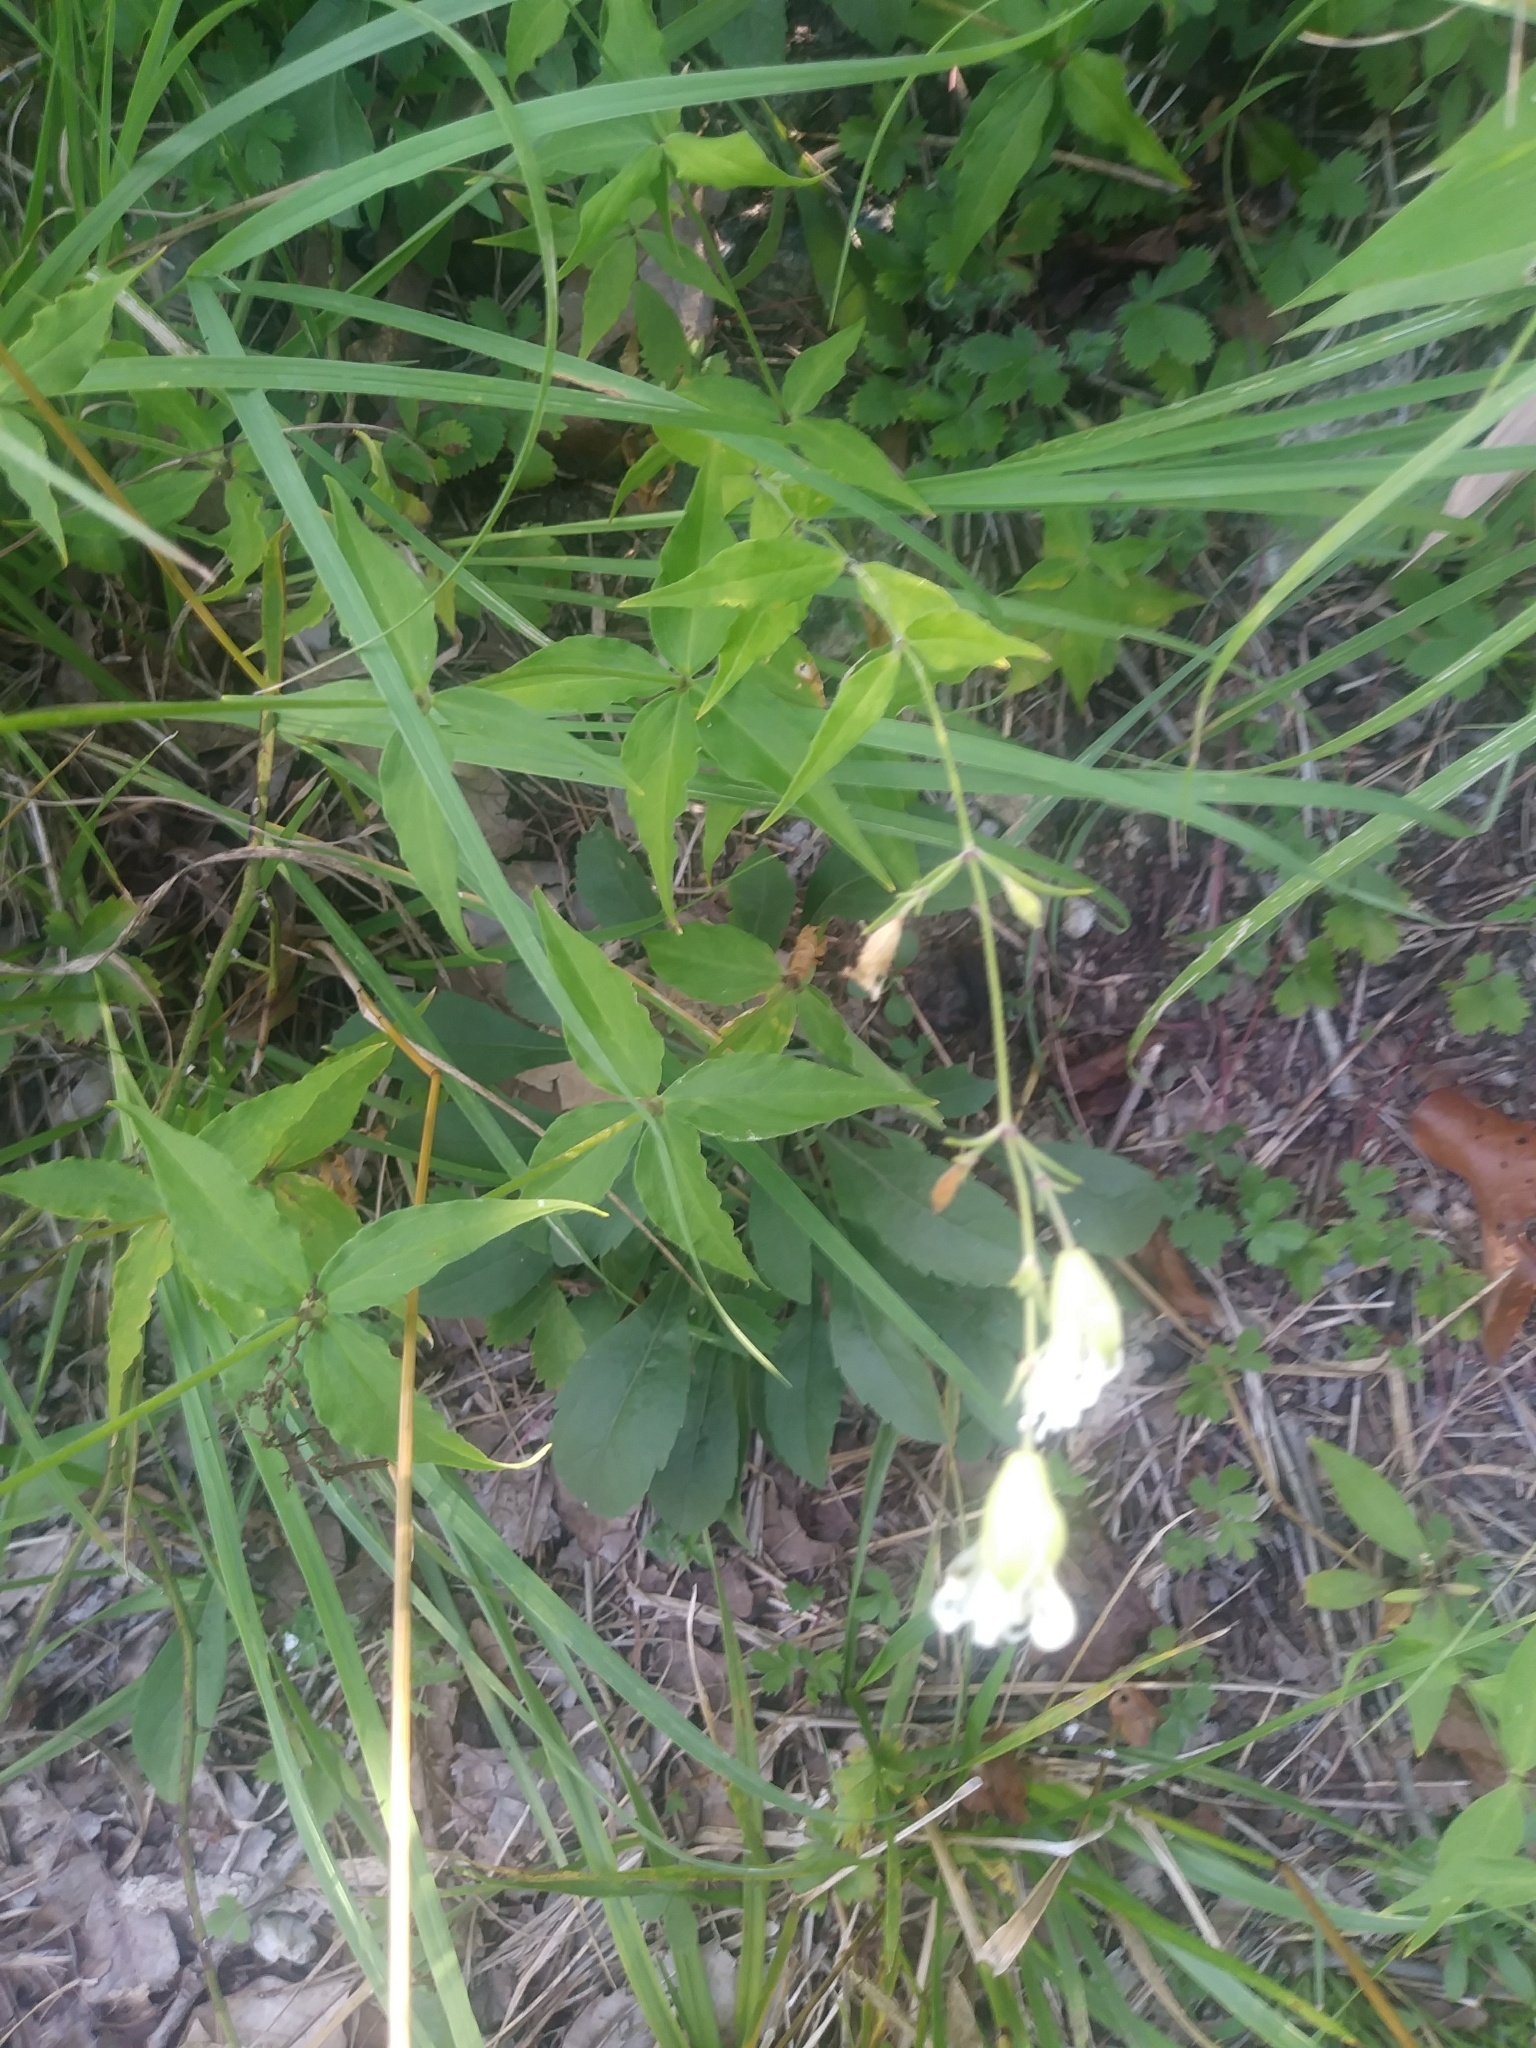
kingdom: Plantae
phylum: Tracheophyta
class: Magnoliopsida
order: Caryophyllales
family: Caryophyllaceae
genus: Silene
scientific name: Silene stellata
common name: Starry campion
